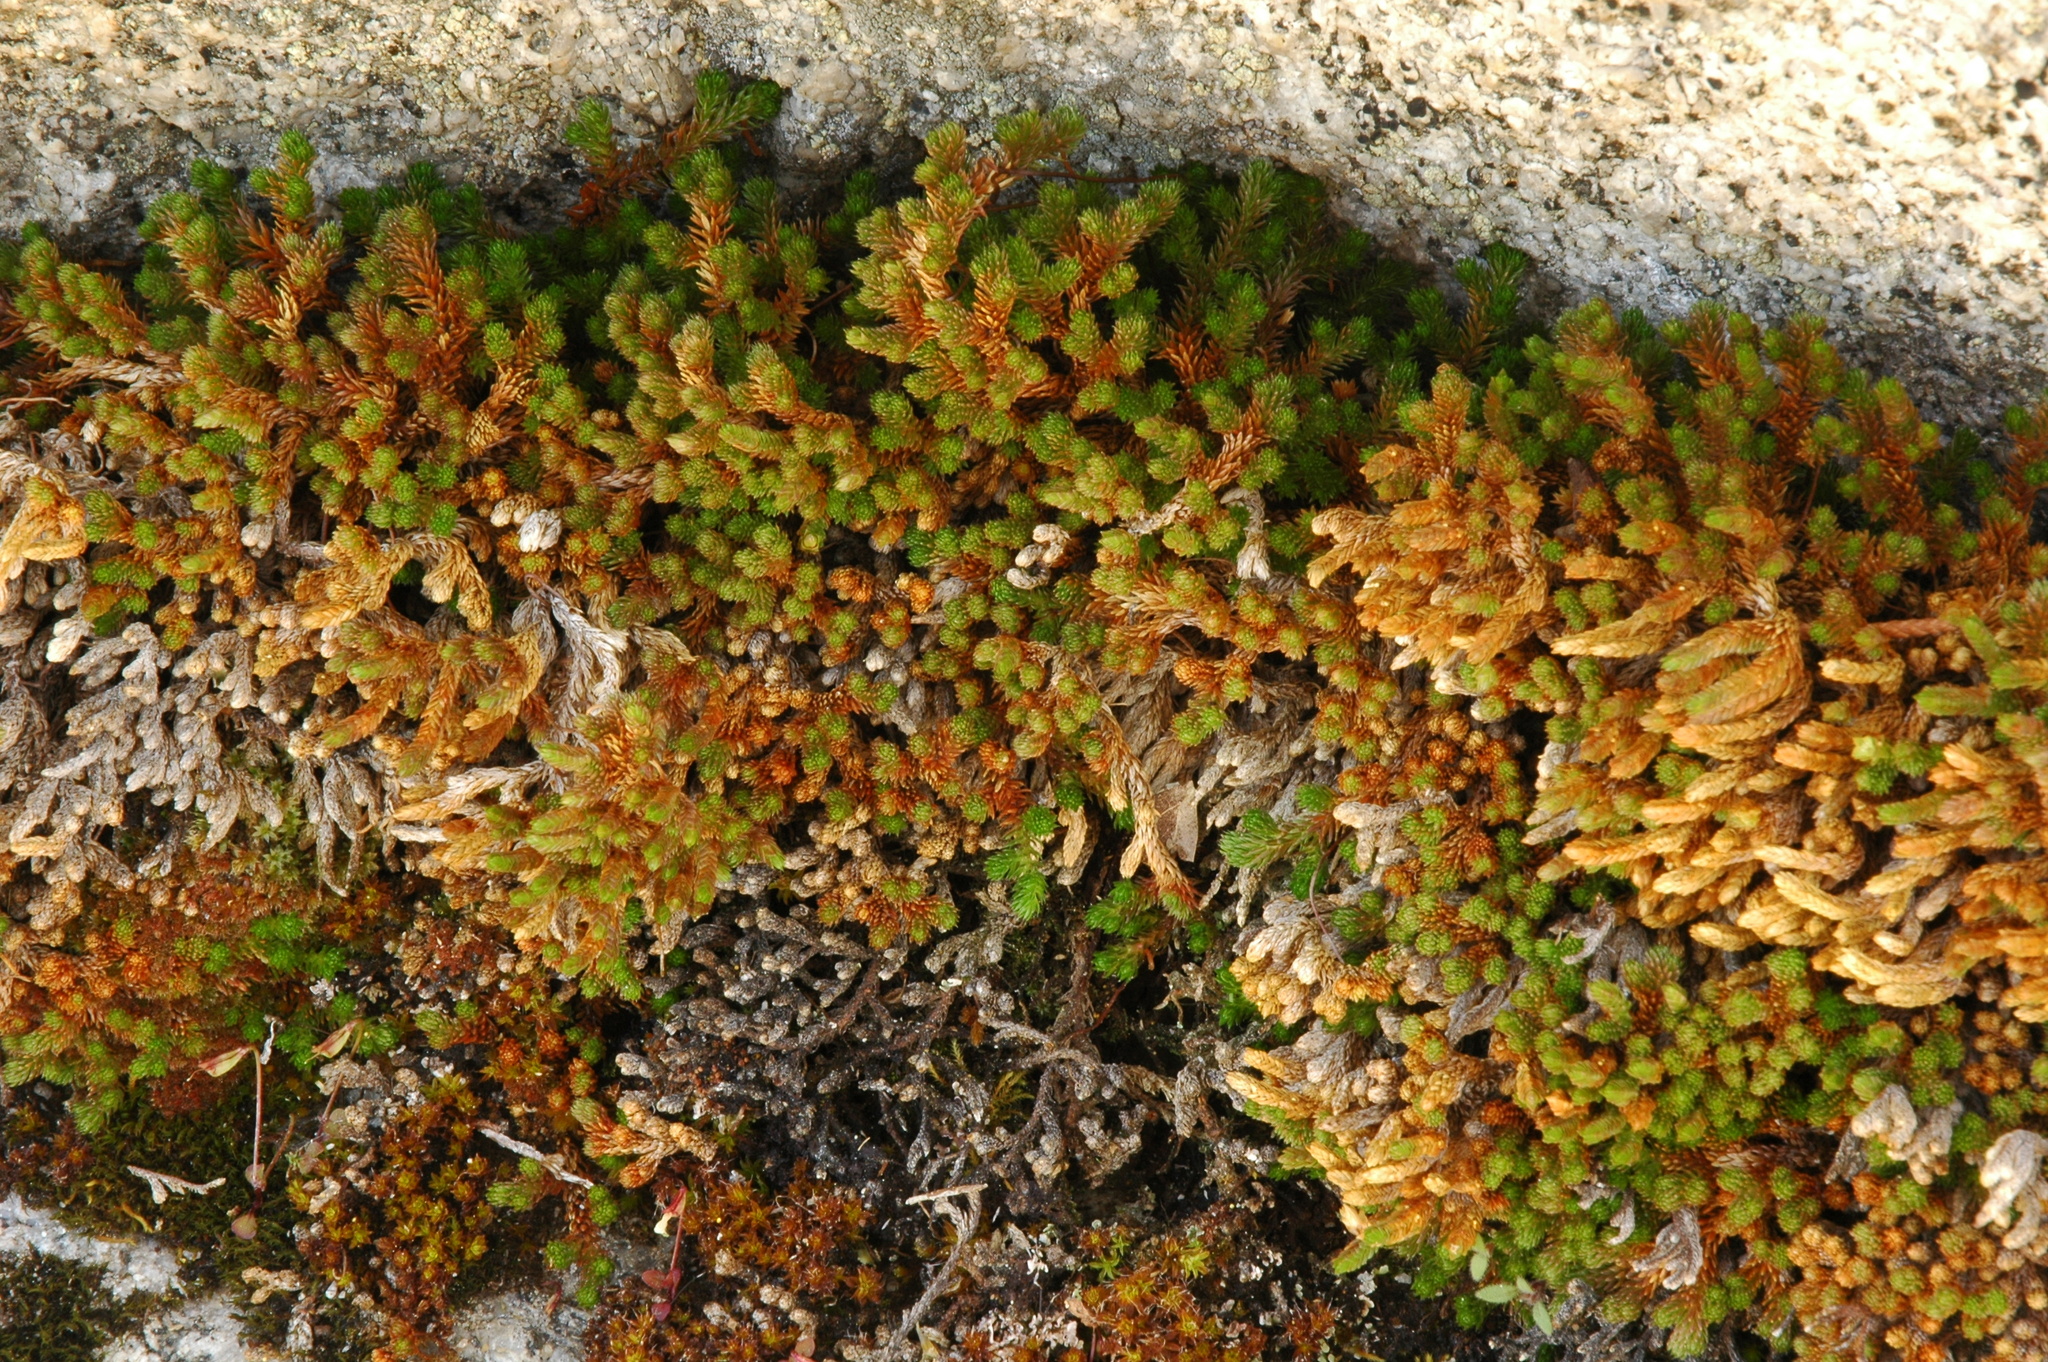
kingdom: Plantae
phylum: Tracheophyta
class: Lycopodiopsida
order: Selaginellales
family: Selaginellaceae
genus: Selaginella
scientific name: Selaginella watsonii
